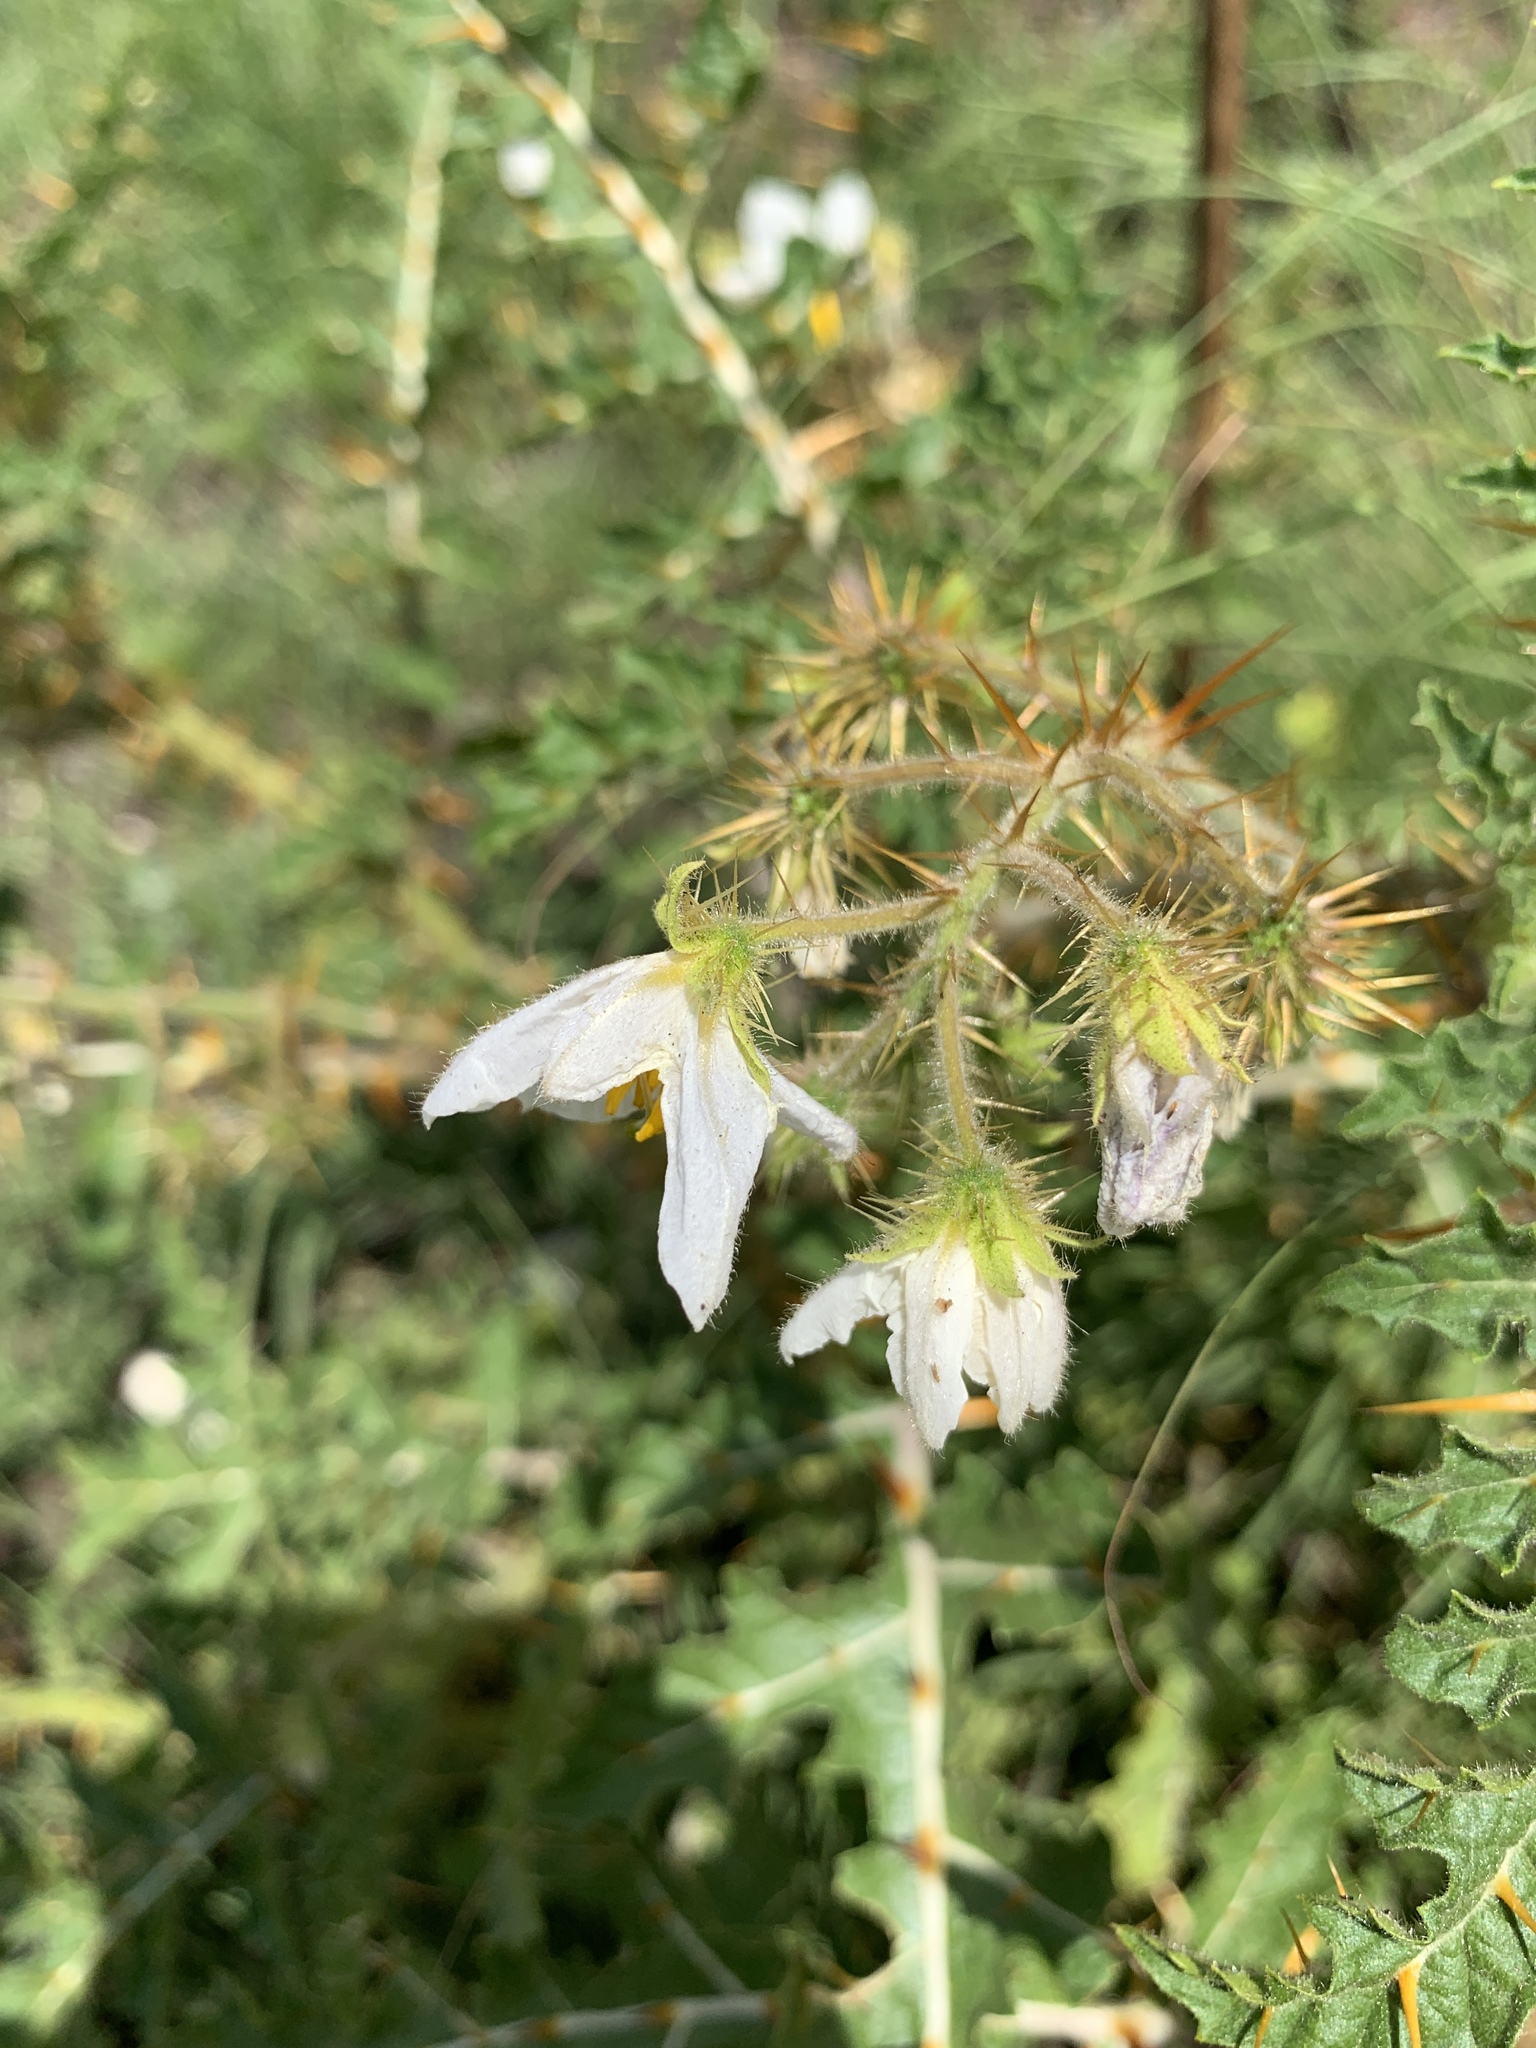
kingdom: Plantae
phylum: Tracheophyta
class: Magnoliopsida
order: Solanales
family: Solanaceae
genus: Solanum
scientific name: Solanum sisymbriifolium
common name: Red buffalo-bur
